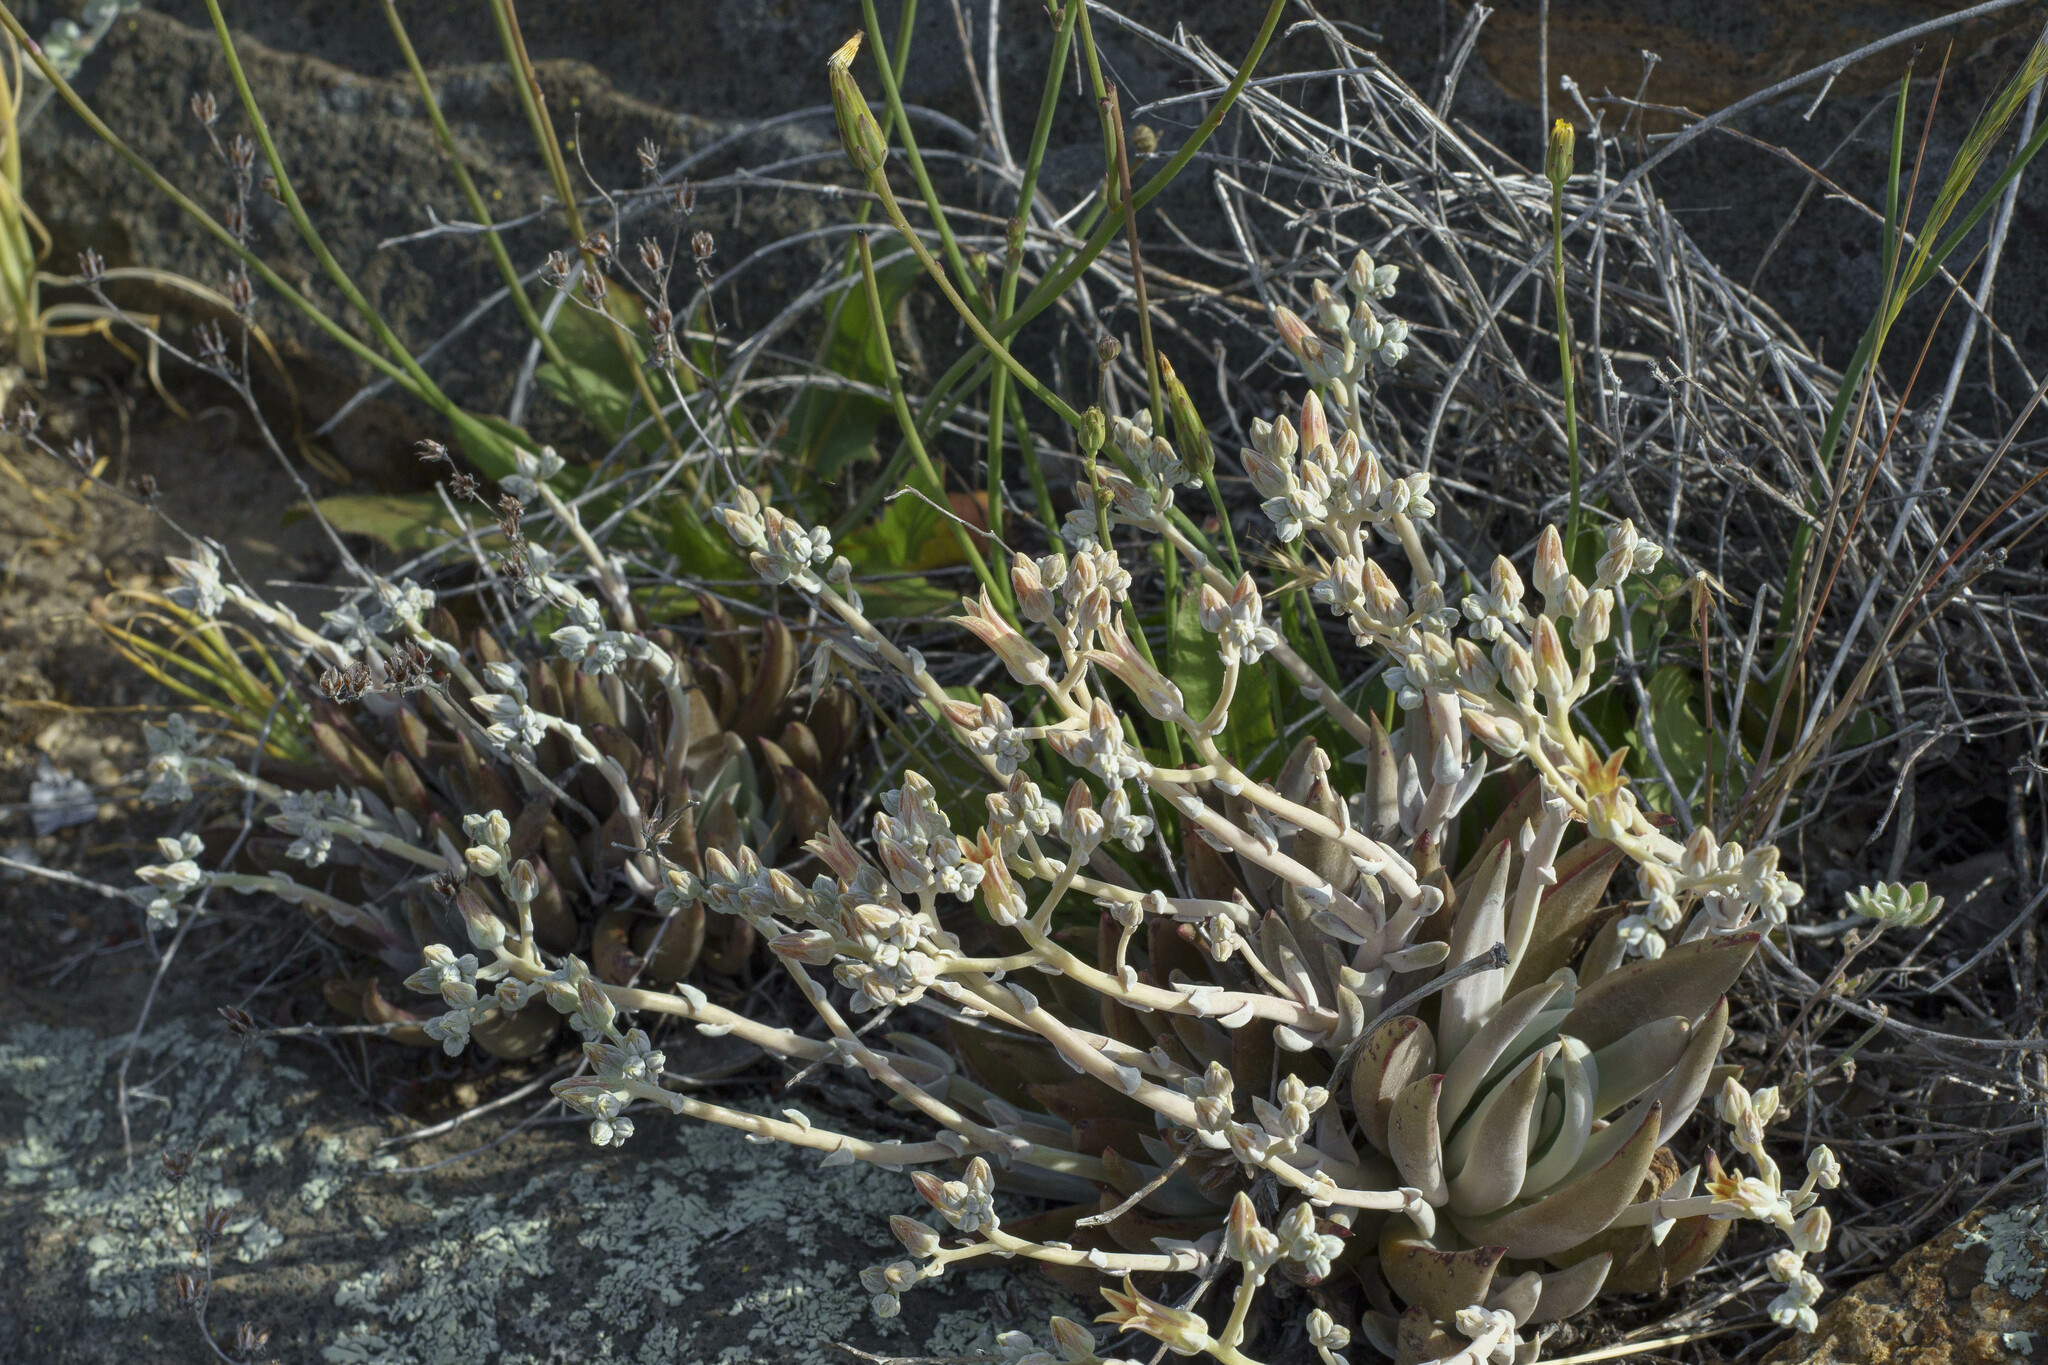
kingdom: Plantae
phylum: Tracheophyta
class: Magnoliopsida
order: Saxifragales
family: Crassulaceae
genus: Dudleya
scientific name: Dudleya abramsii
